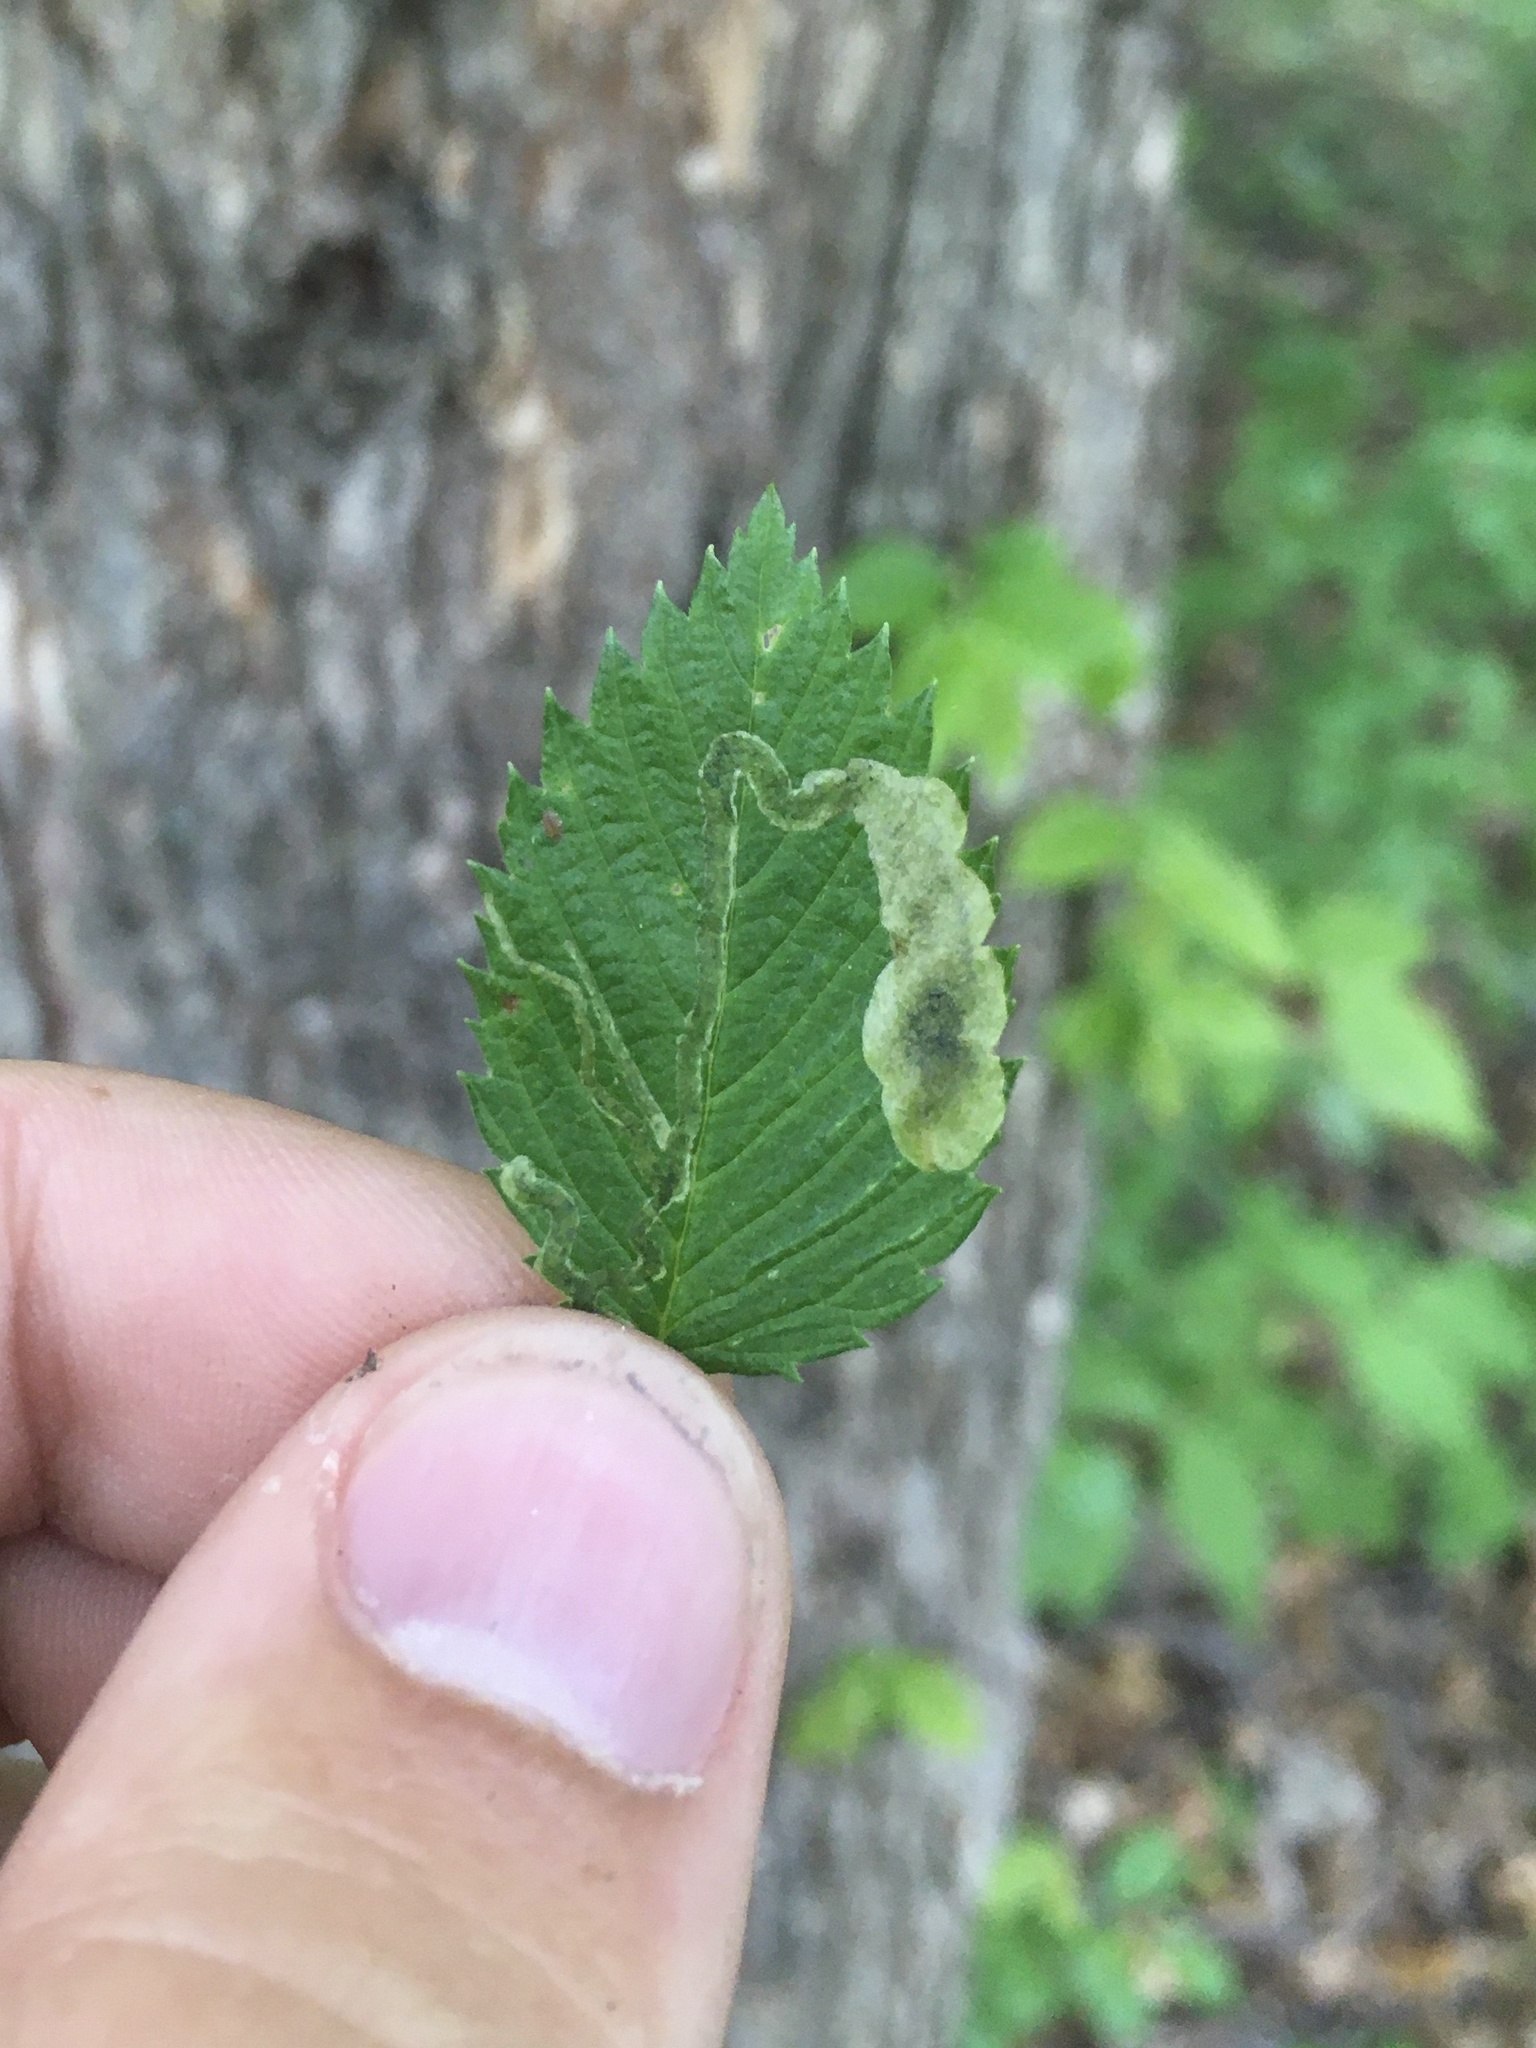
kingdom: Animalia
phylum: Arthropoda
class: Insecta
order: Diptera
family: Agromyzidae
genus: Agromyza
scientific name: Agromyza aristata
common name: Elm agromyzid leafminer
